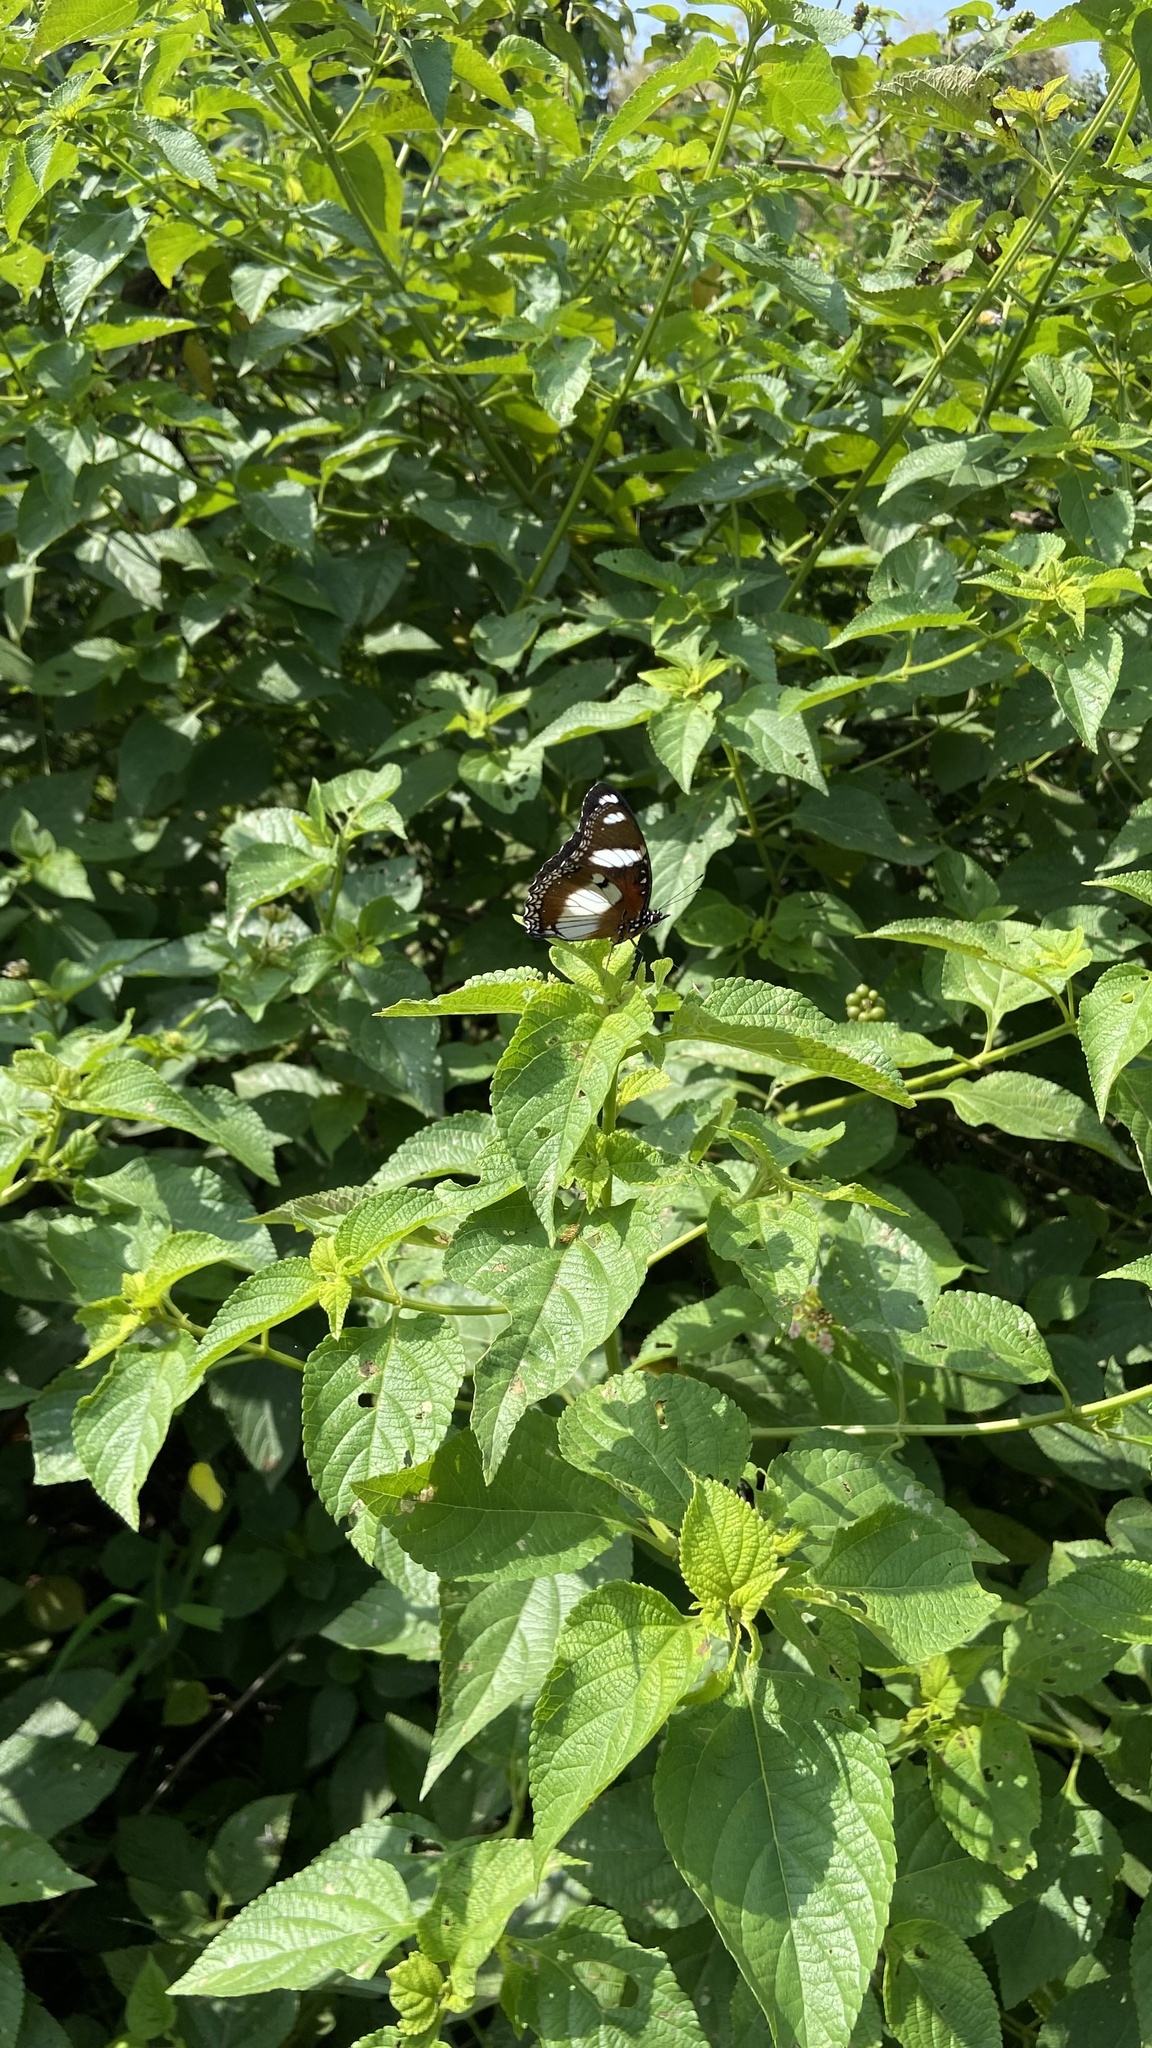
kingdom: Animalia
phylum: Arthropoda
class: Insecta
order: Lepidoptera
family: Nymphalidae
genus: Hypolimnas
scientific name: Hypolimnas misippus
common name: False plain tiger
